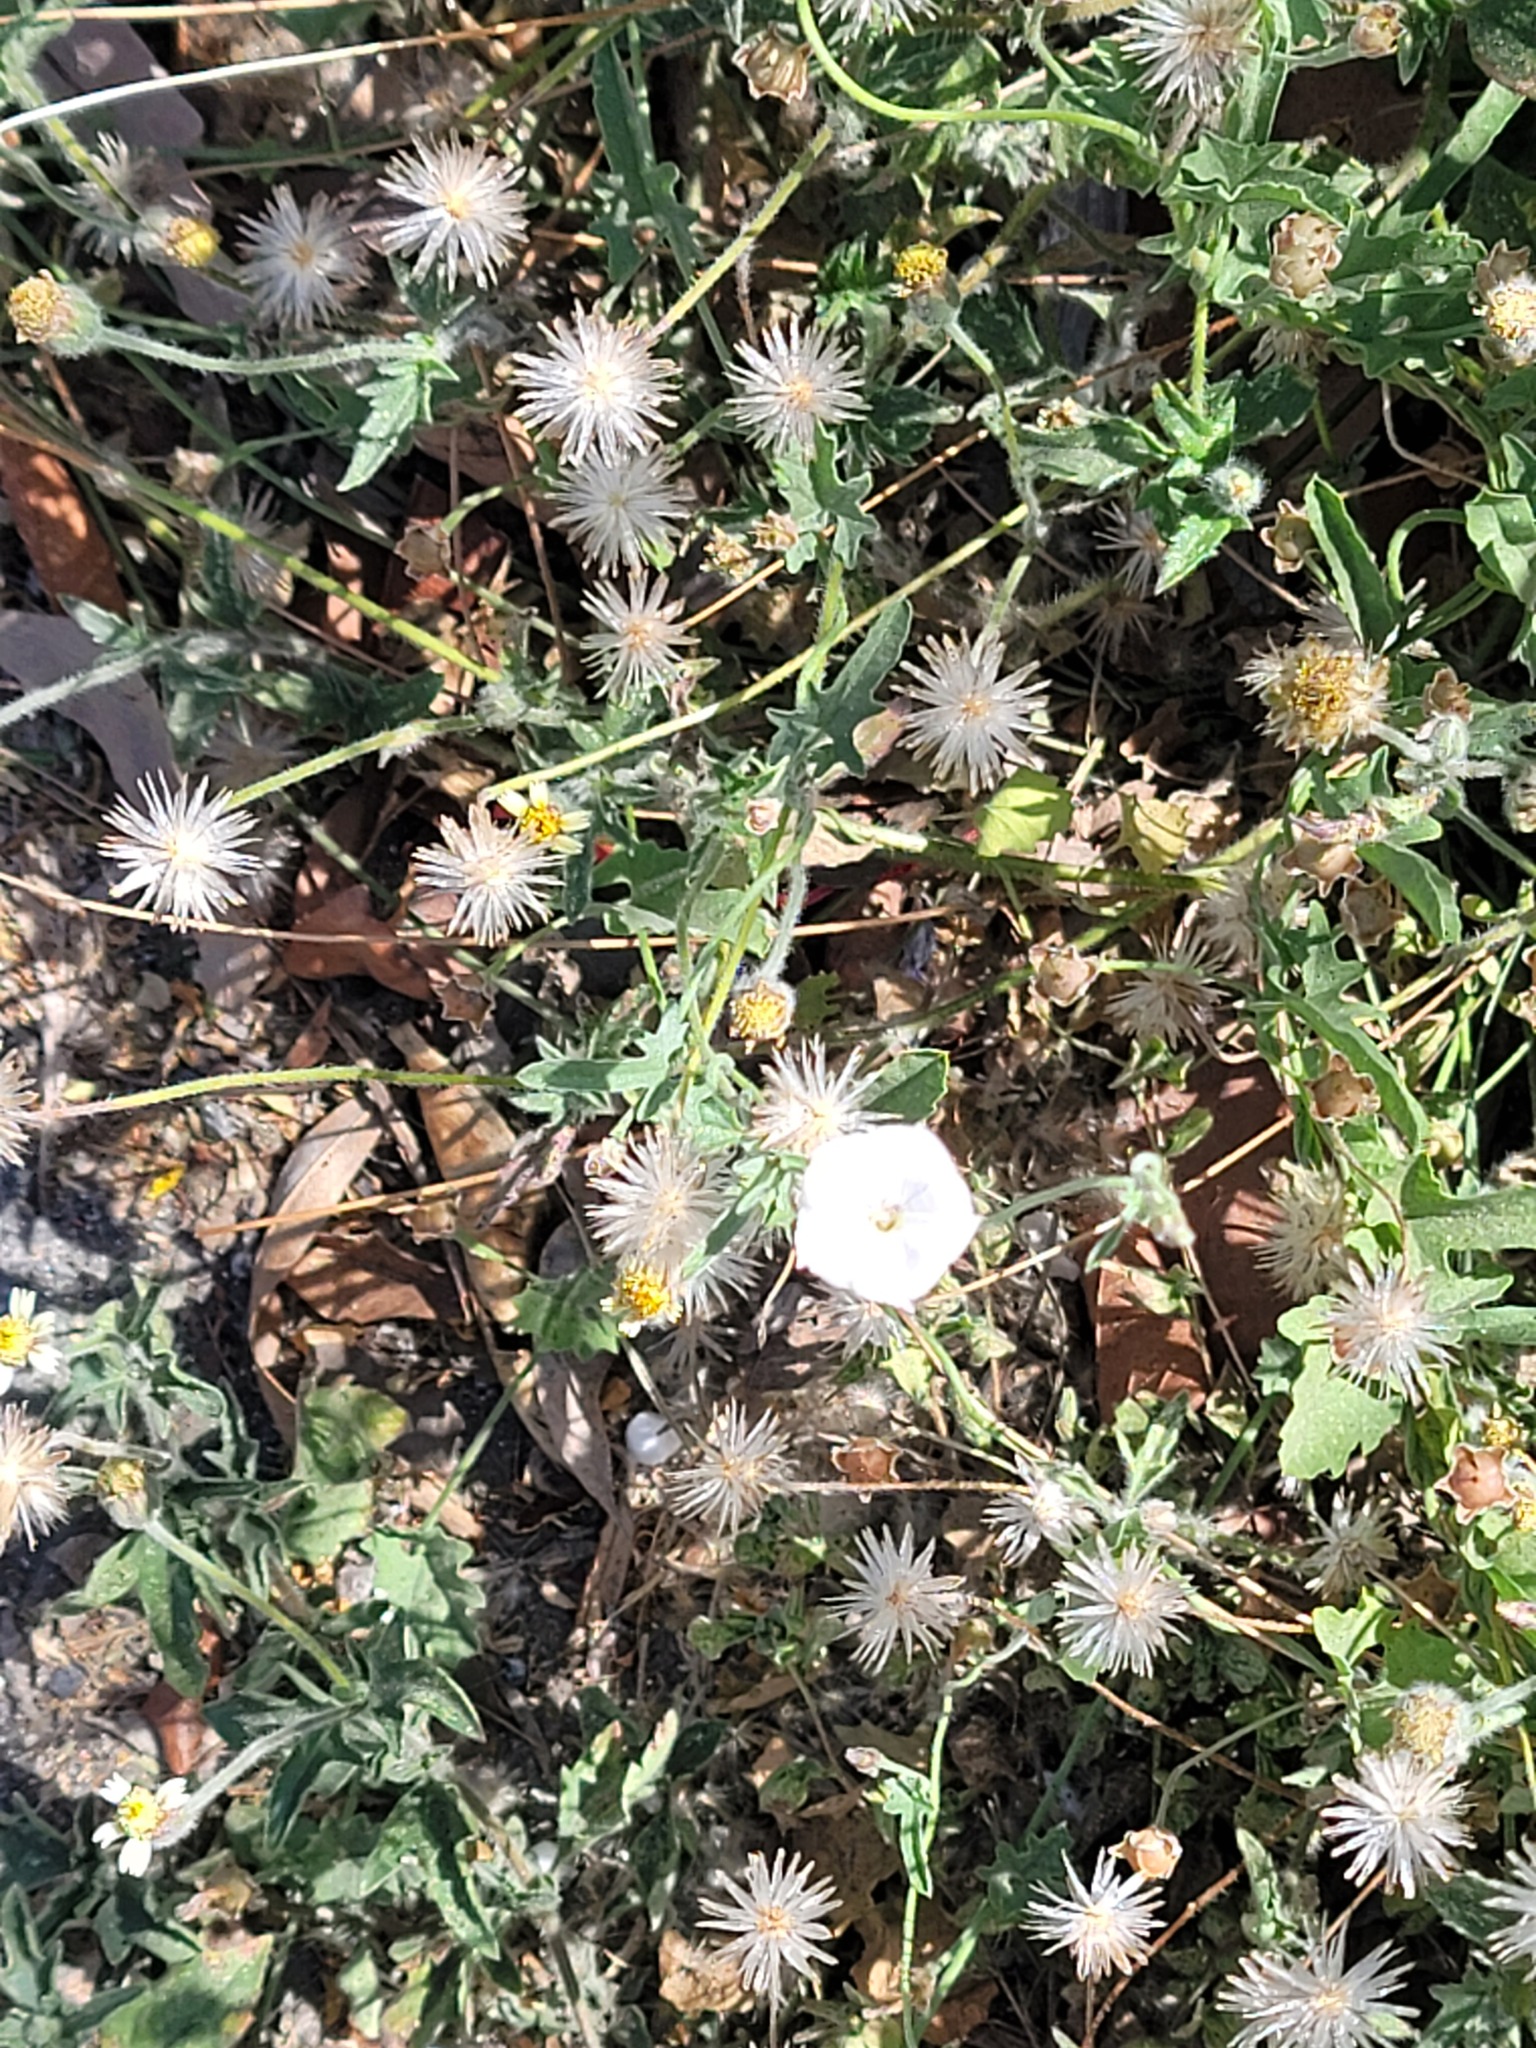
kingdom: Plantae
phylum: Tracheophyta
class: Magnoliopsida
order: Solanales
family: Convolvulaceae
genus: Convolvulus
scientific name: Convolvulus equitans
